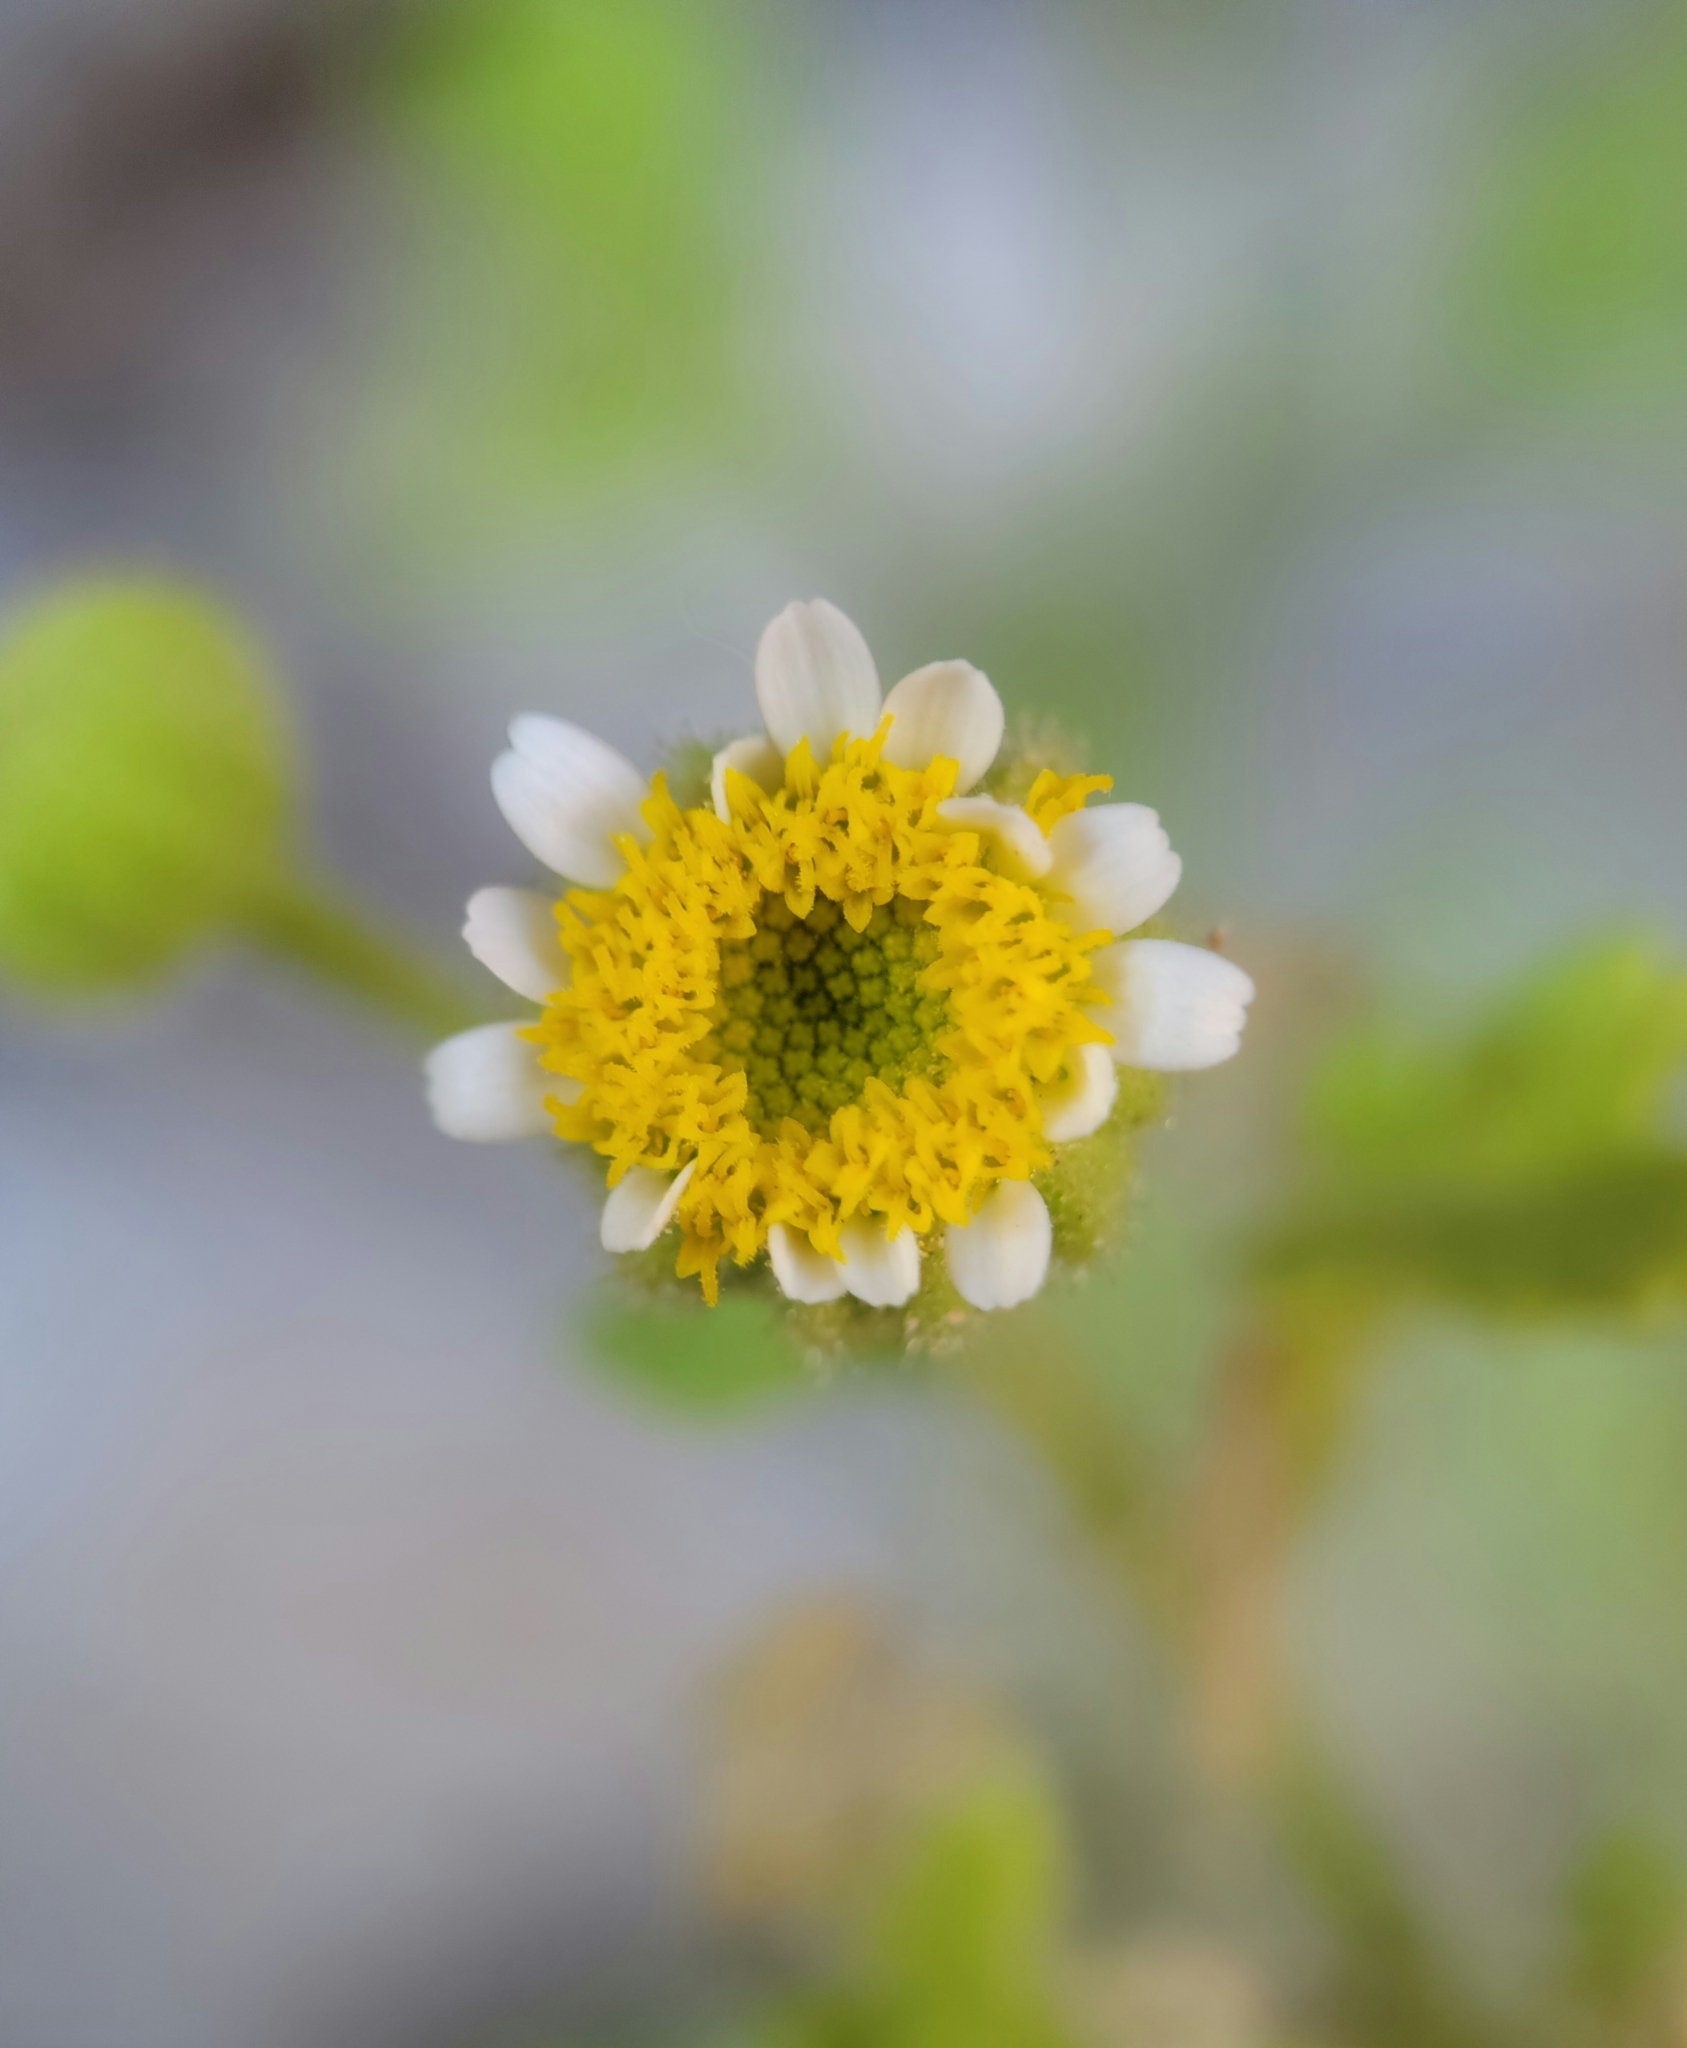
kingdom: Plantae
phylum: Tracheophyta
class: Magnoliopsida
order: Asterales
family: Asteraceae
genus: Laphamia
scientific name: Laphamia emoryi
